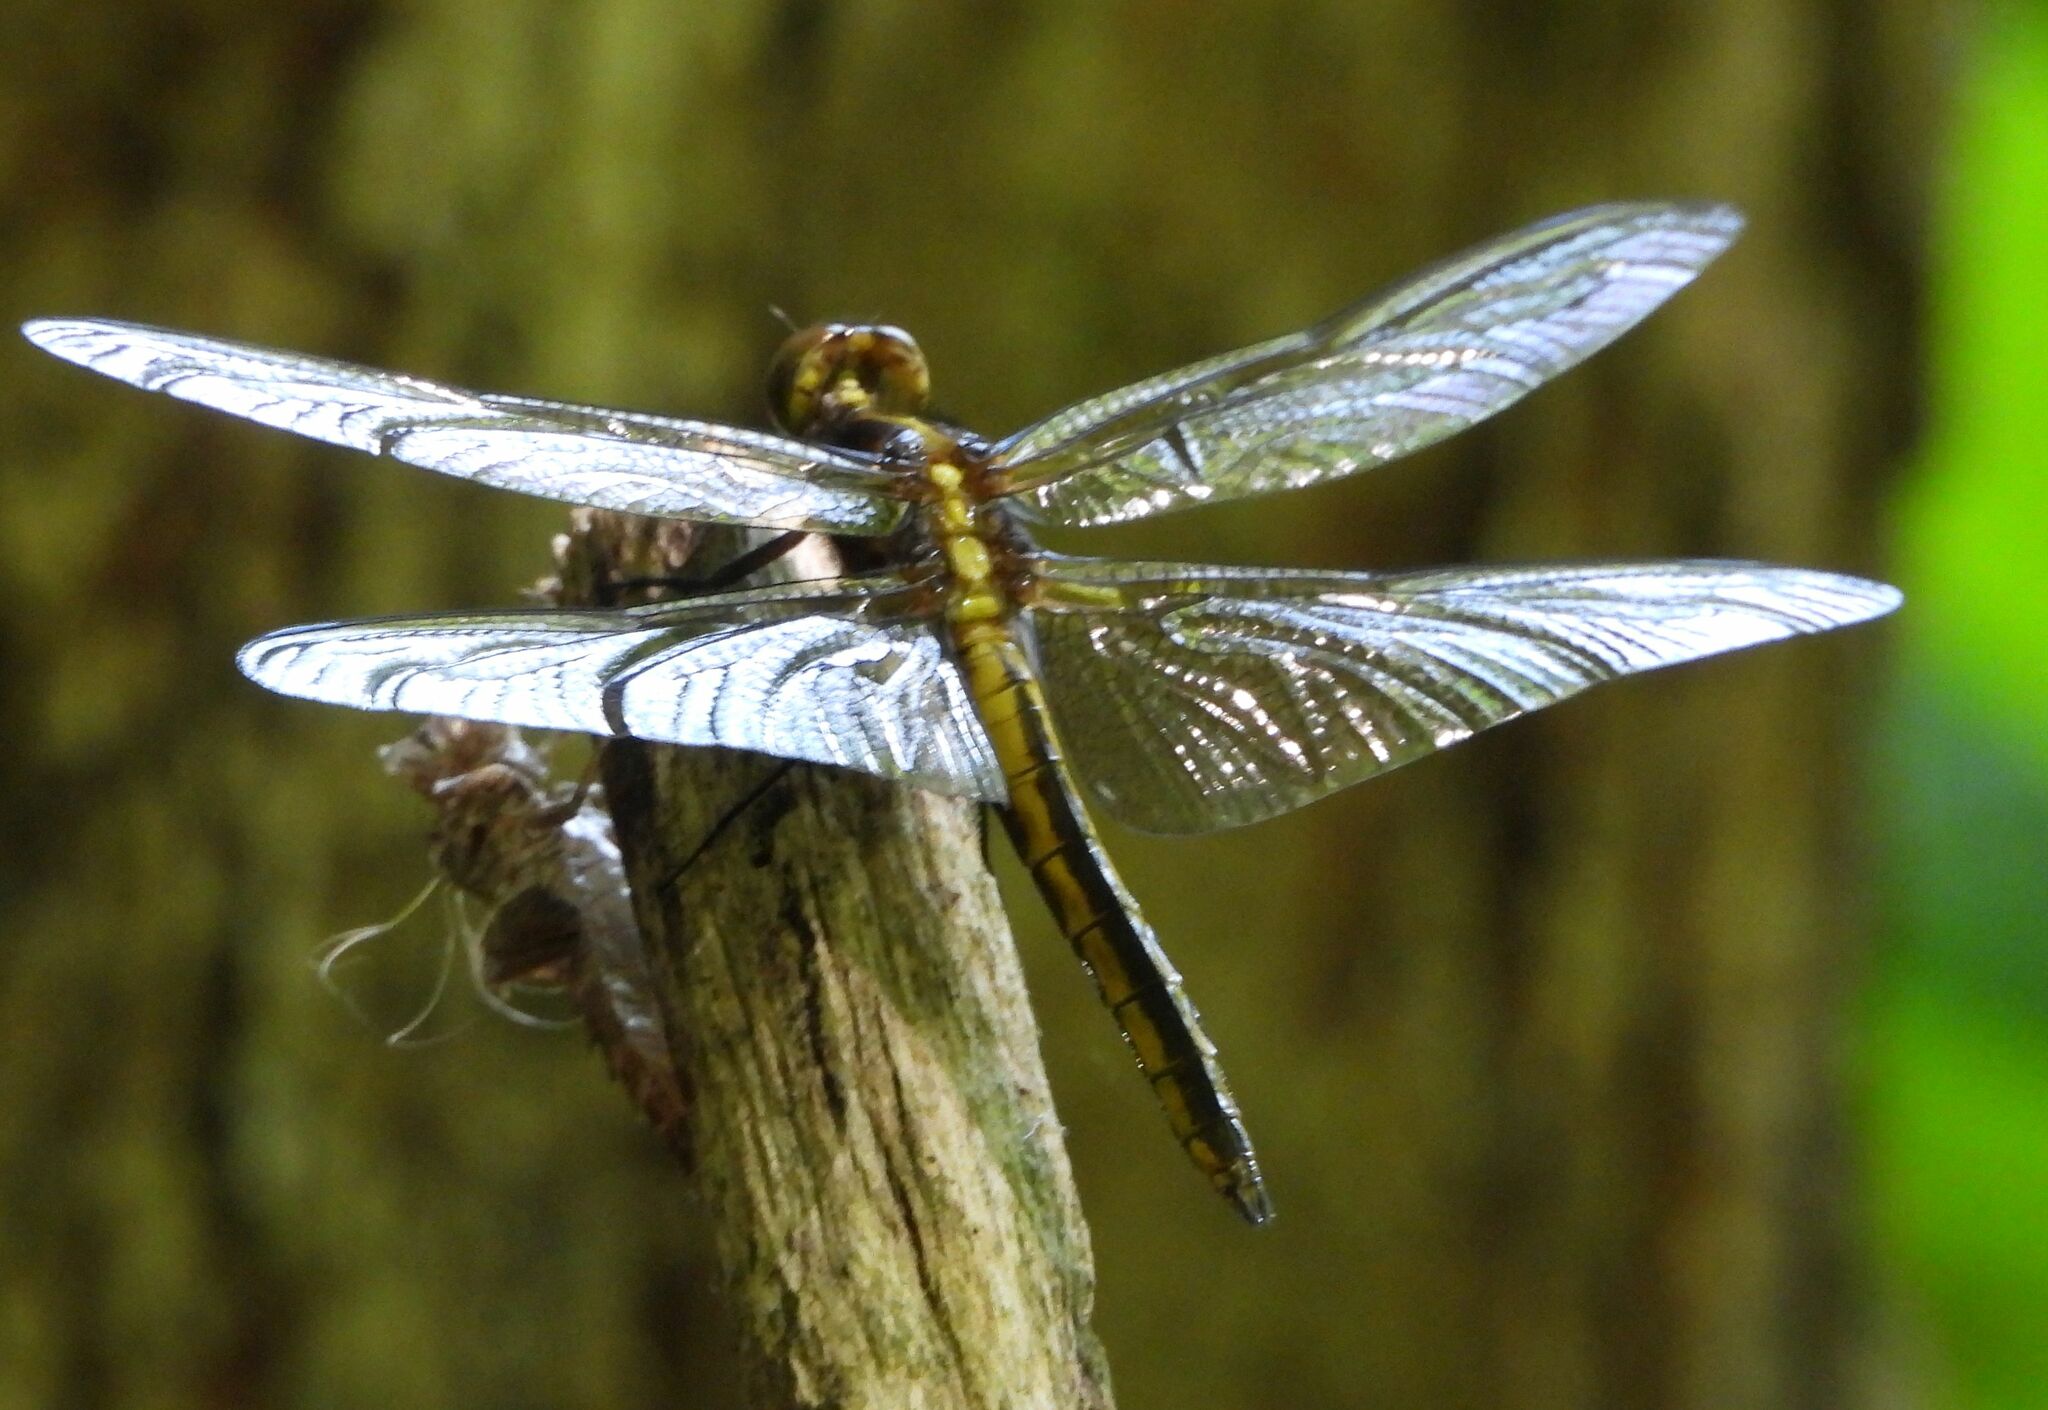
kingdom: Animalia
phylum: Arthropoda
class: Insecta
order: Odonata
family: Libellulidae
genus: Libellula
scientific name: Libellula luctuosa
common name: Widow skimmer
